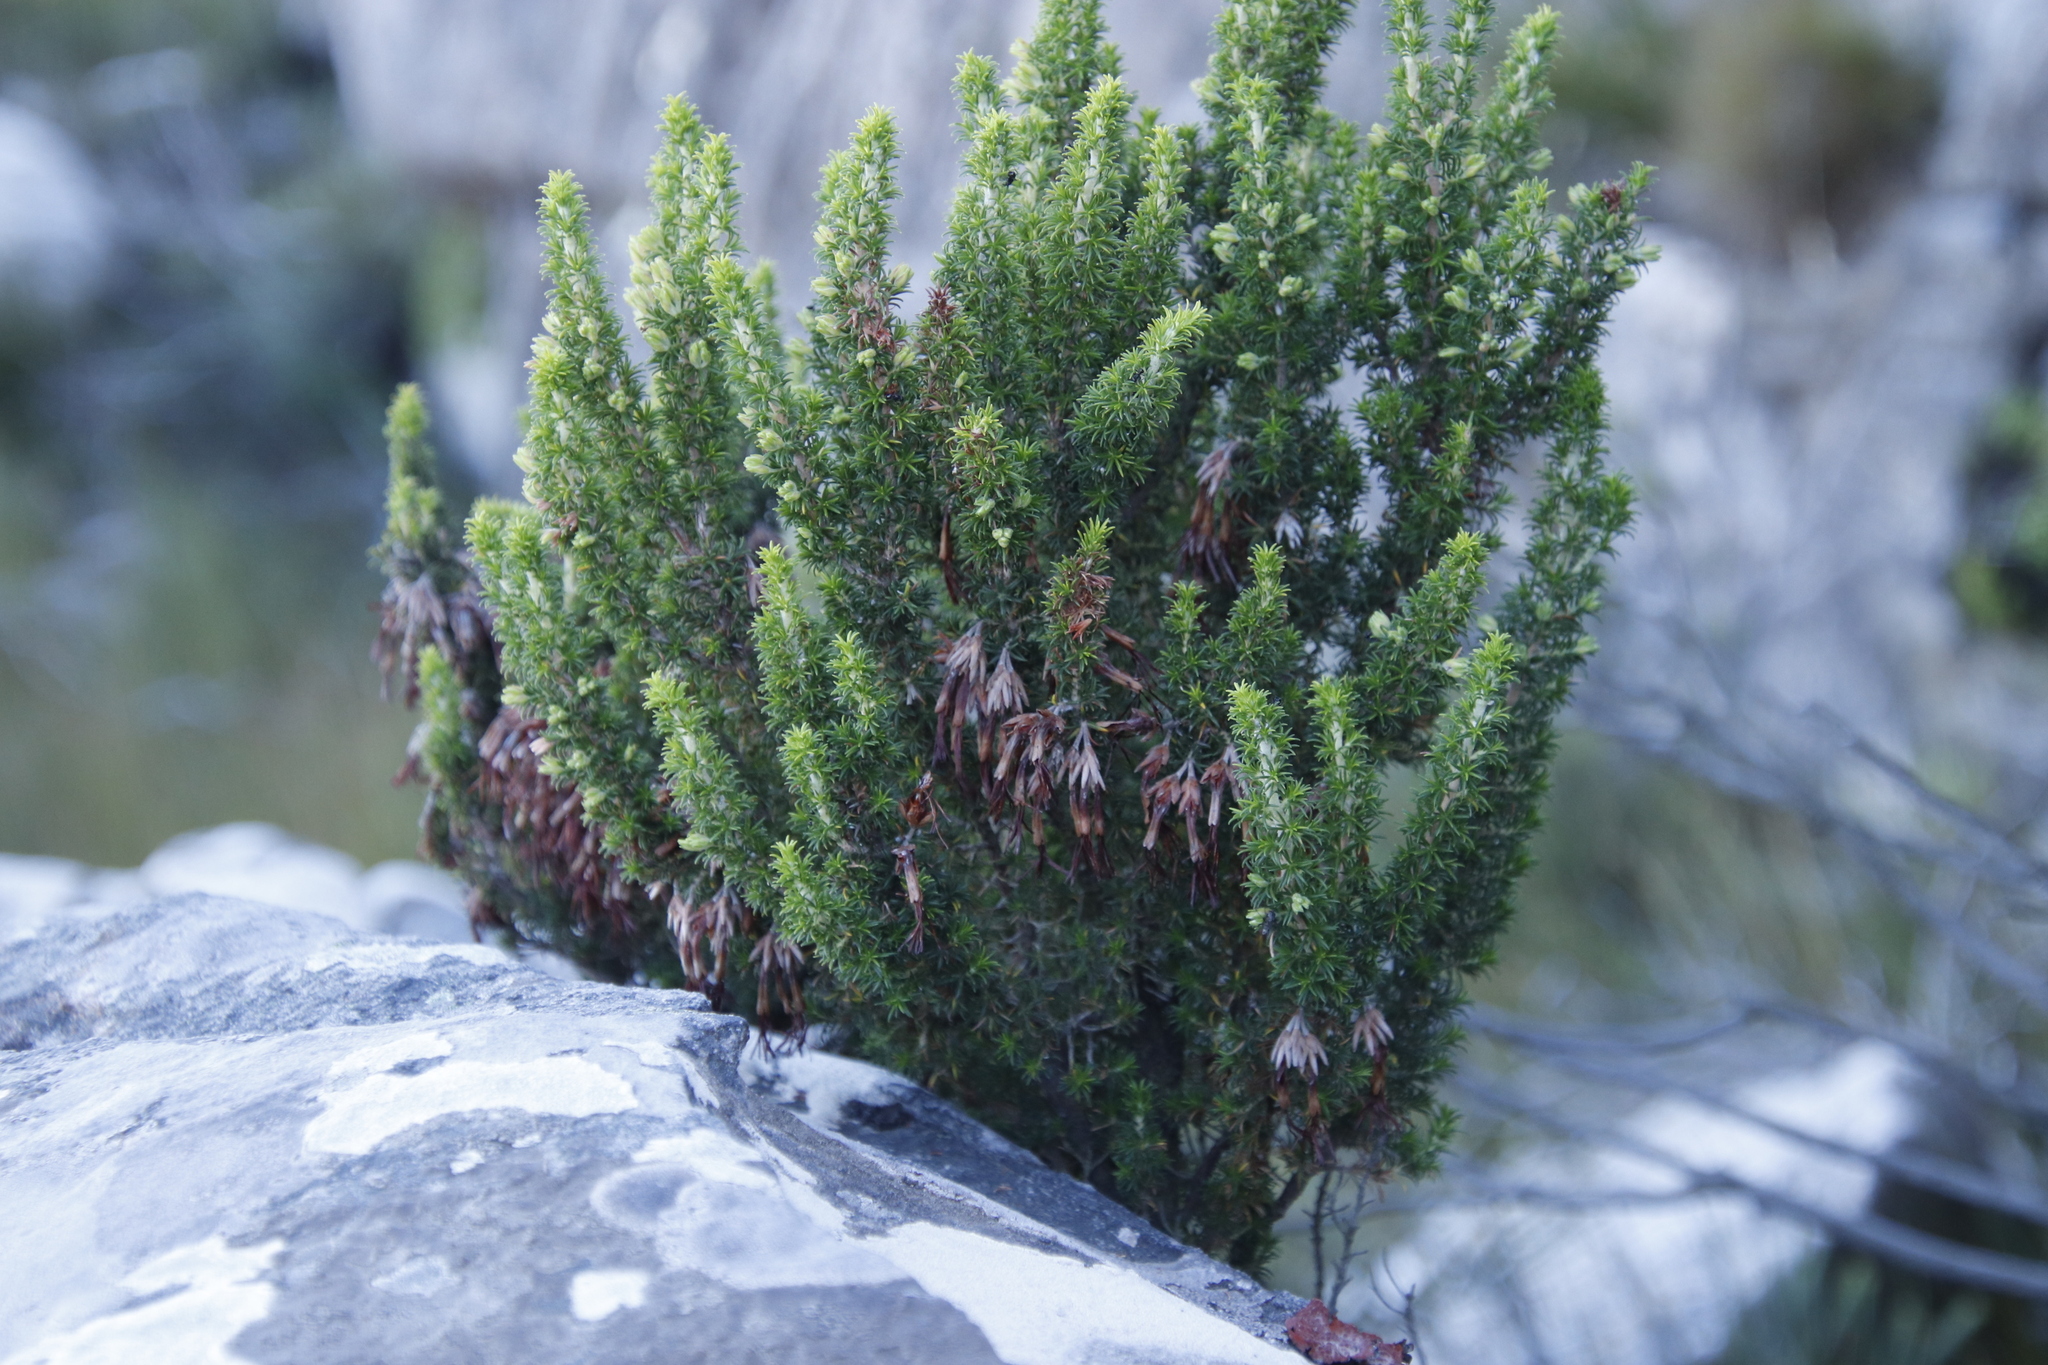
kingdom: Plantae
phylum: Tracheophyta
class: Magnoliopsida
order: Ericales
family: Ericaceae
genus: Erica
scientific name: Erica coccinea
